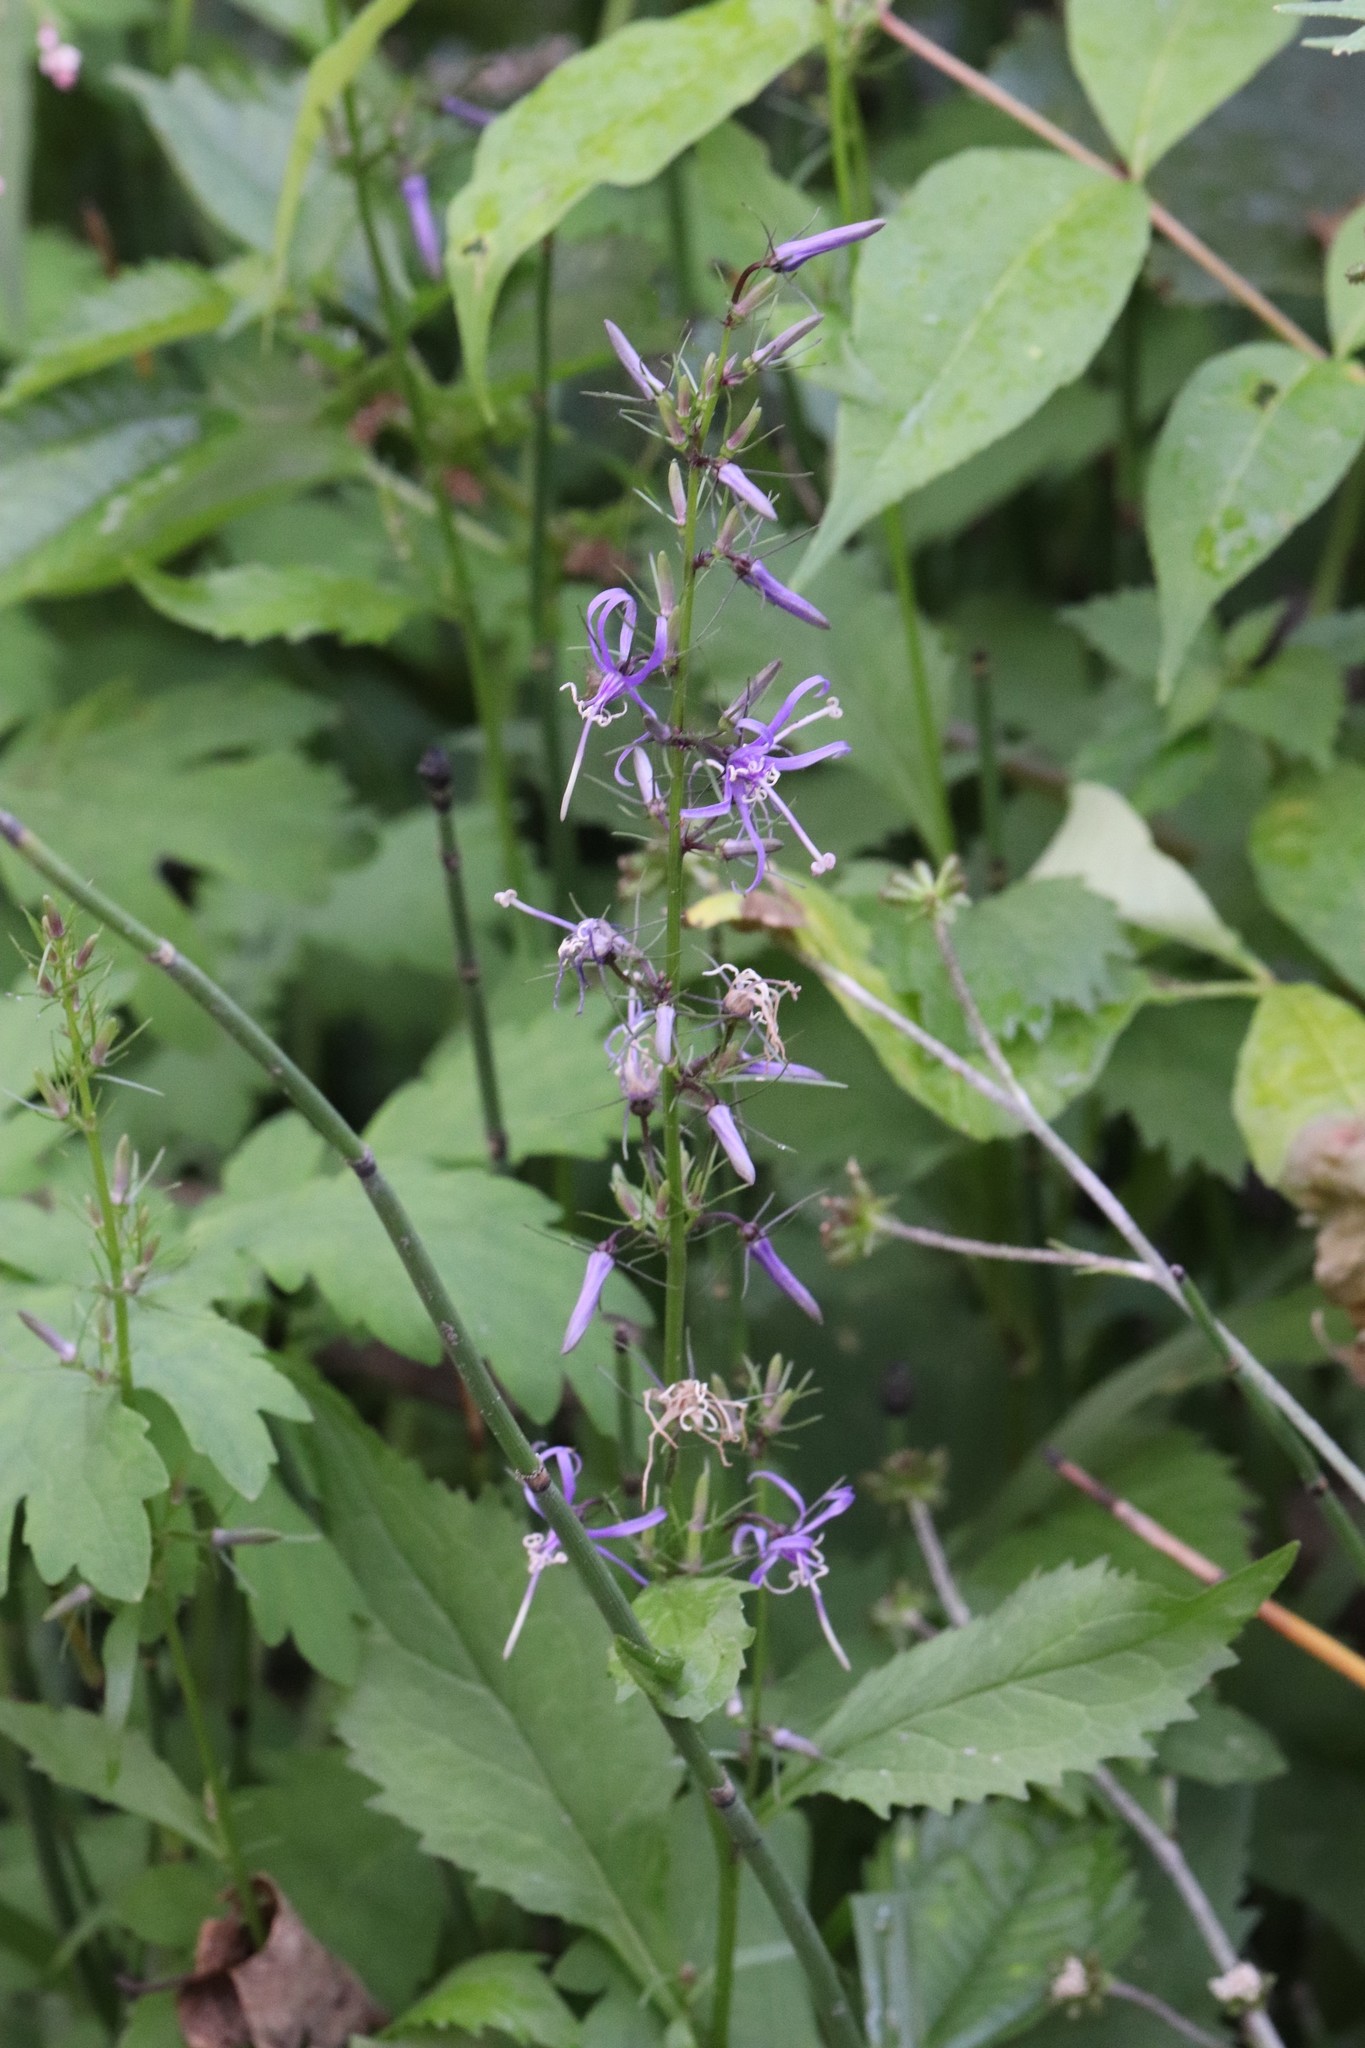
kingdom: Plantae
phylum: Tracheophyta
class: Magnoliopsida
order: Asterales
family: Campanulaceae
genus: Asyneuma
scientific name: Asyneuma japonicum
